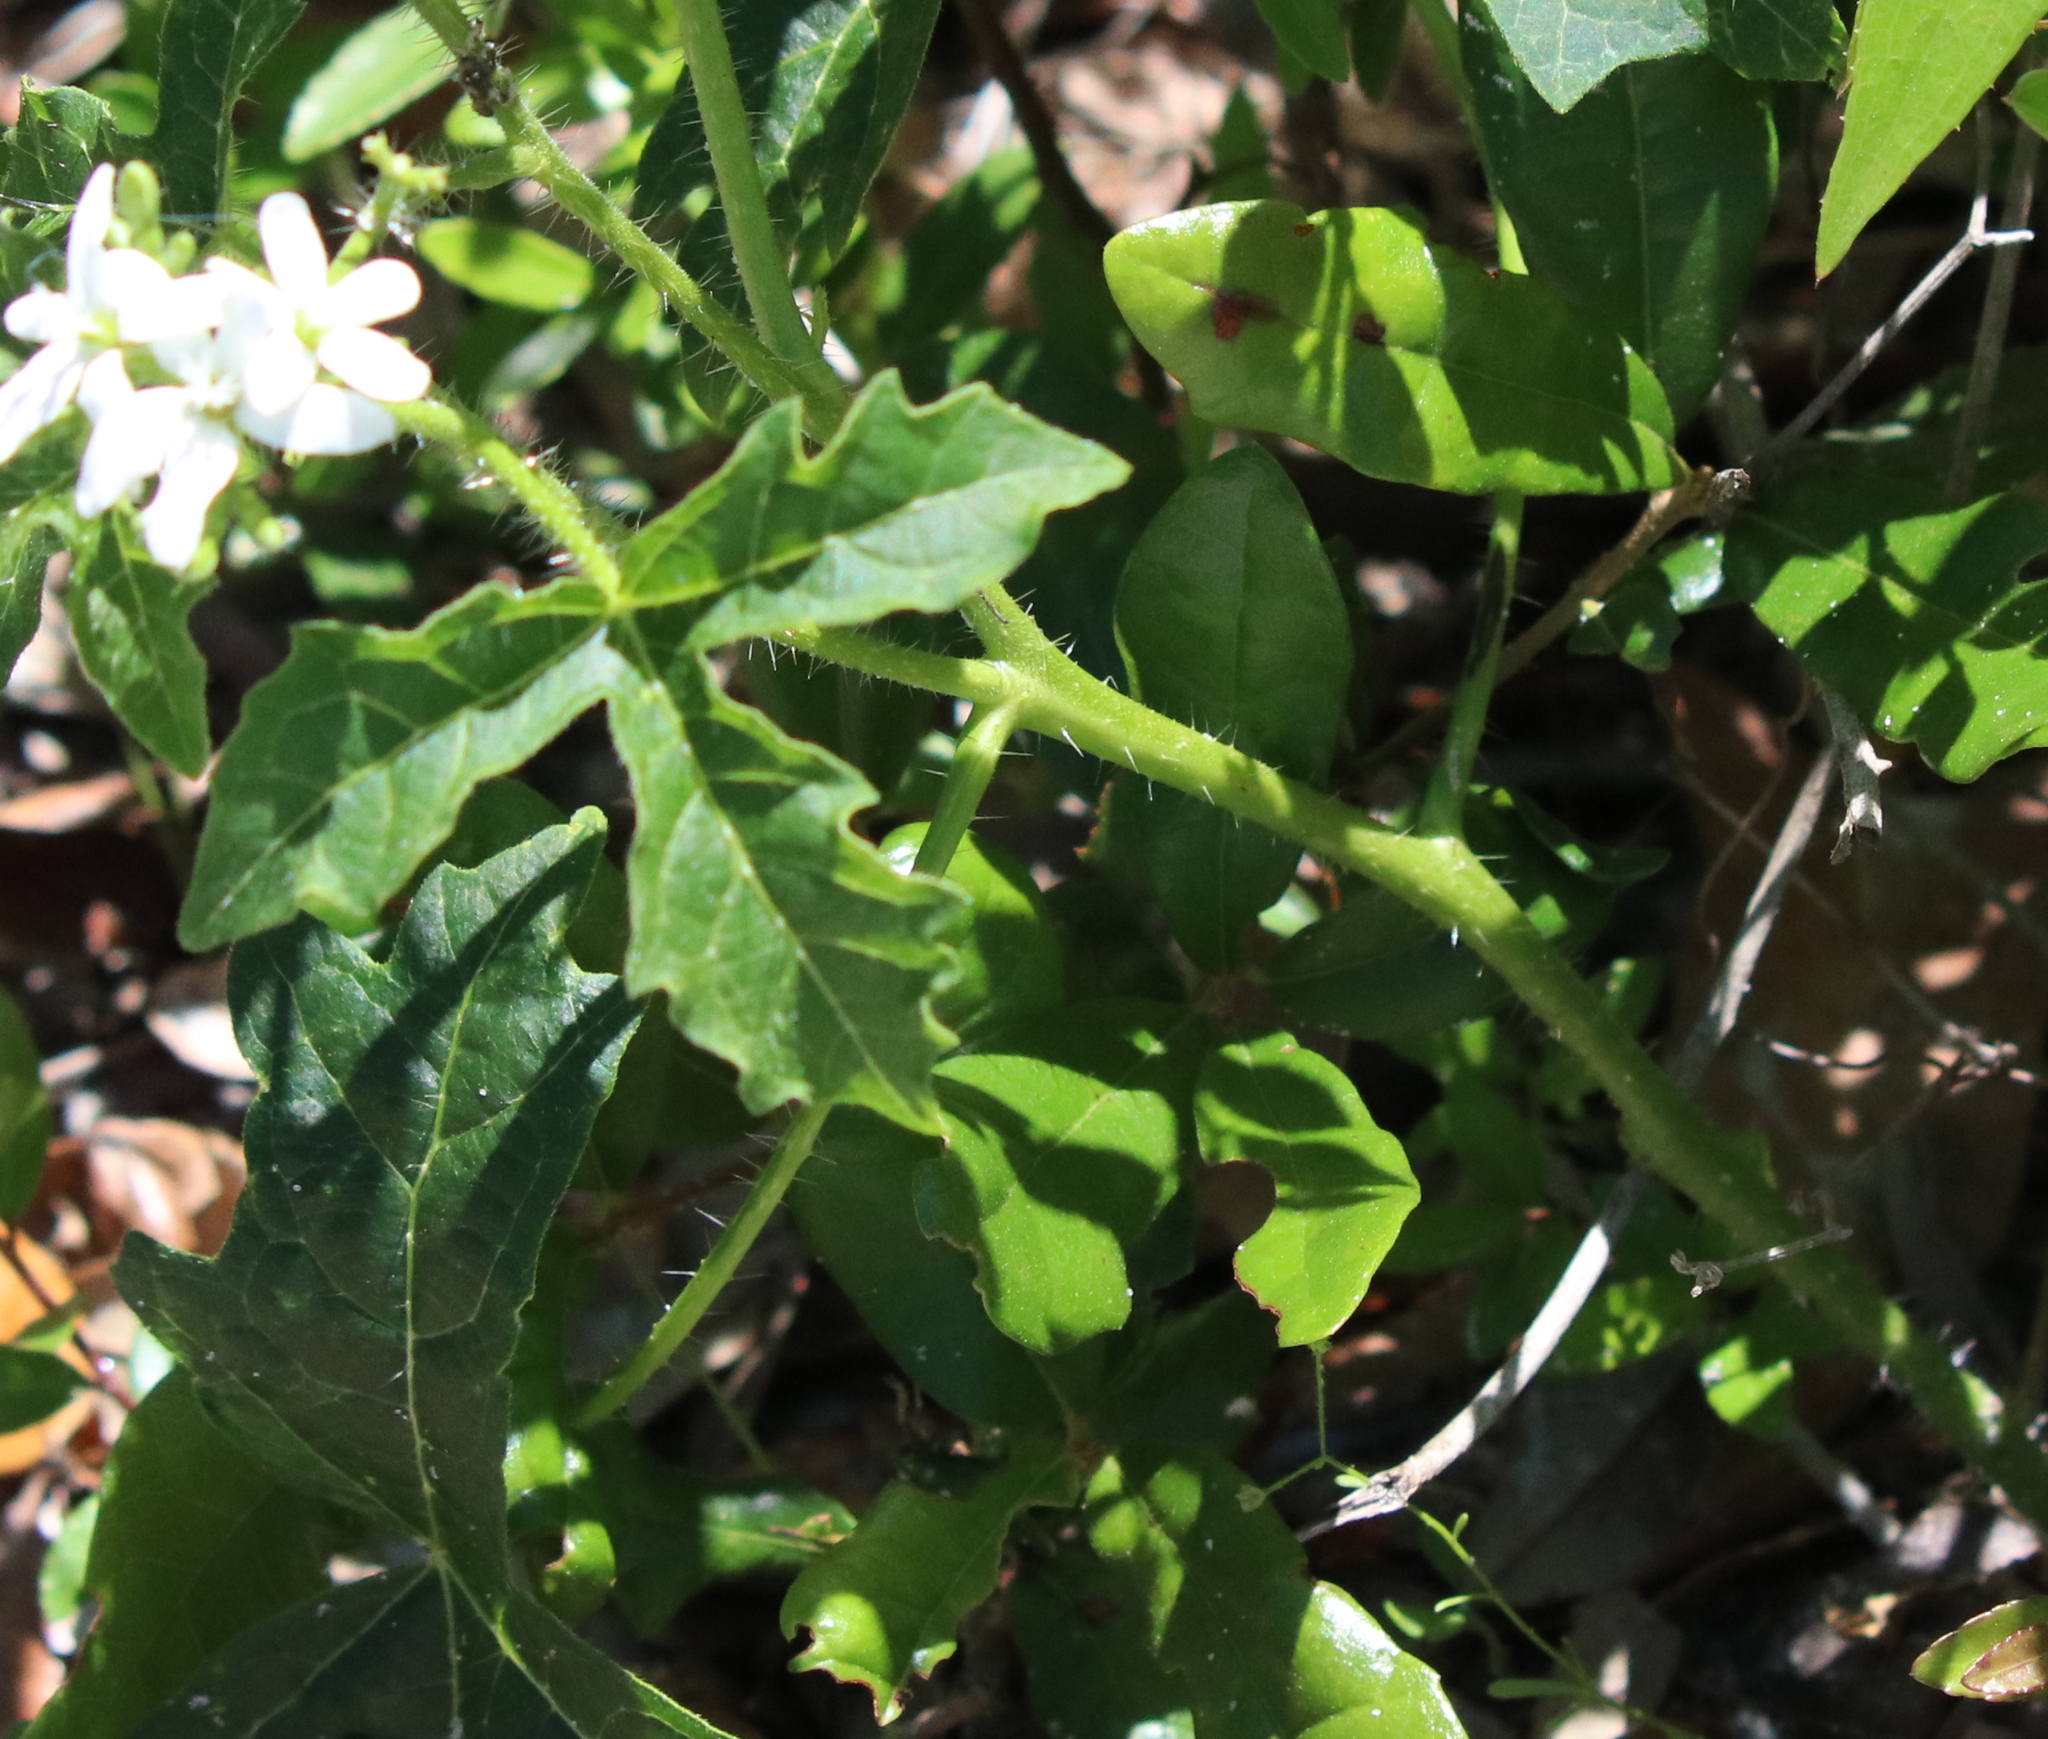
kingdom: Plantae
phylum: Tracheophyta
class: Magnoliopsida
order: Malpighiales
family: Euphorbiaceae
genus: Cnidoscolus
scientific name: Cnidoscolus stimulosus
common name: Bull-nettle
